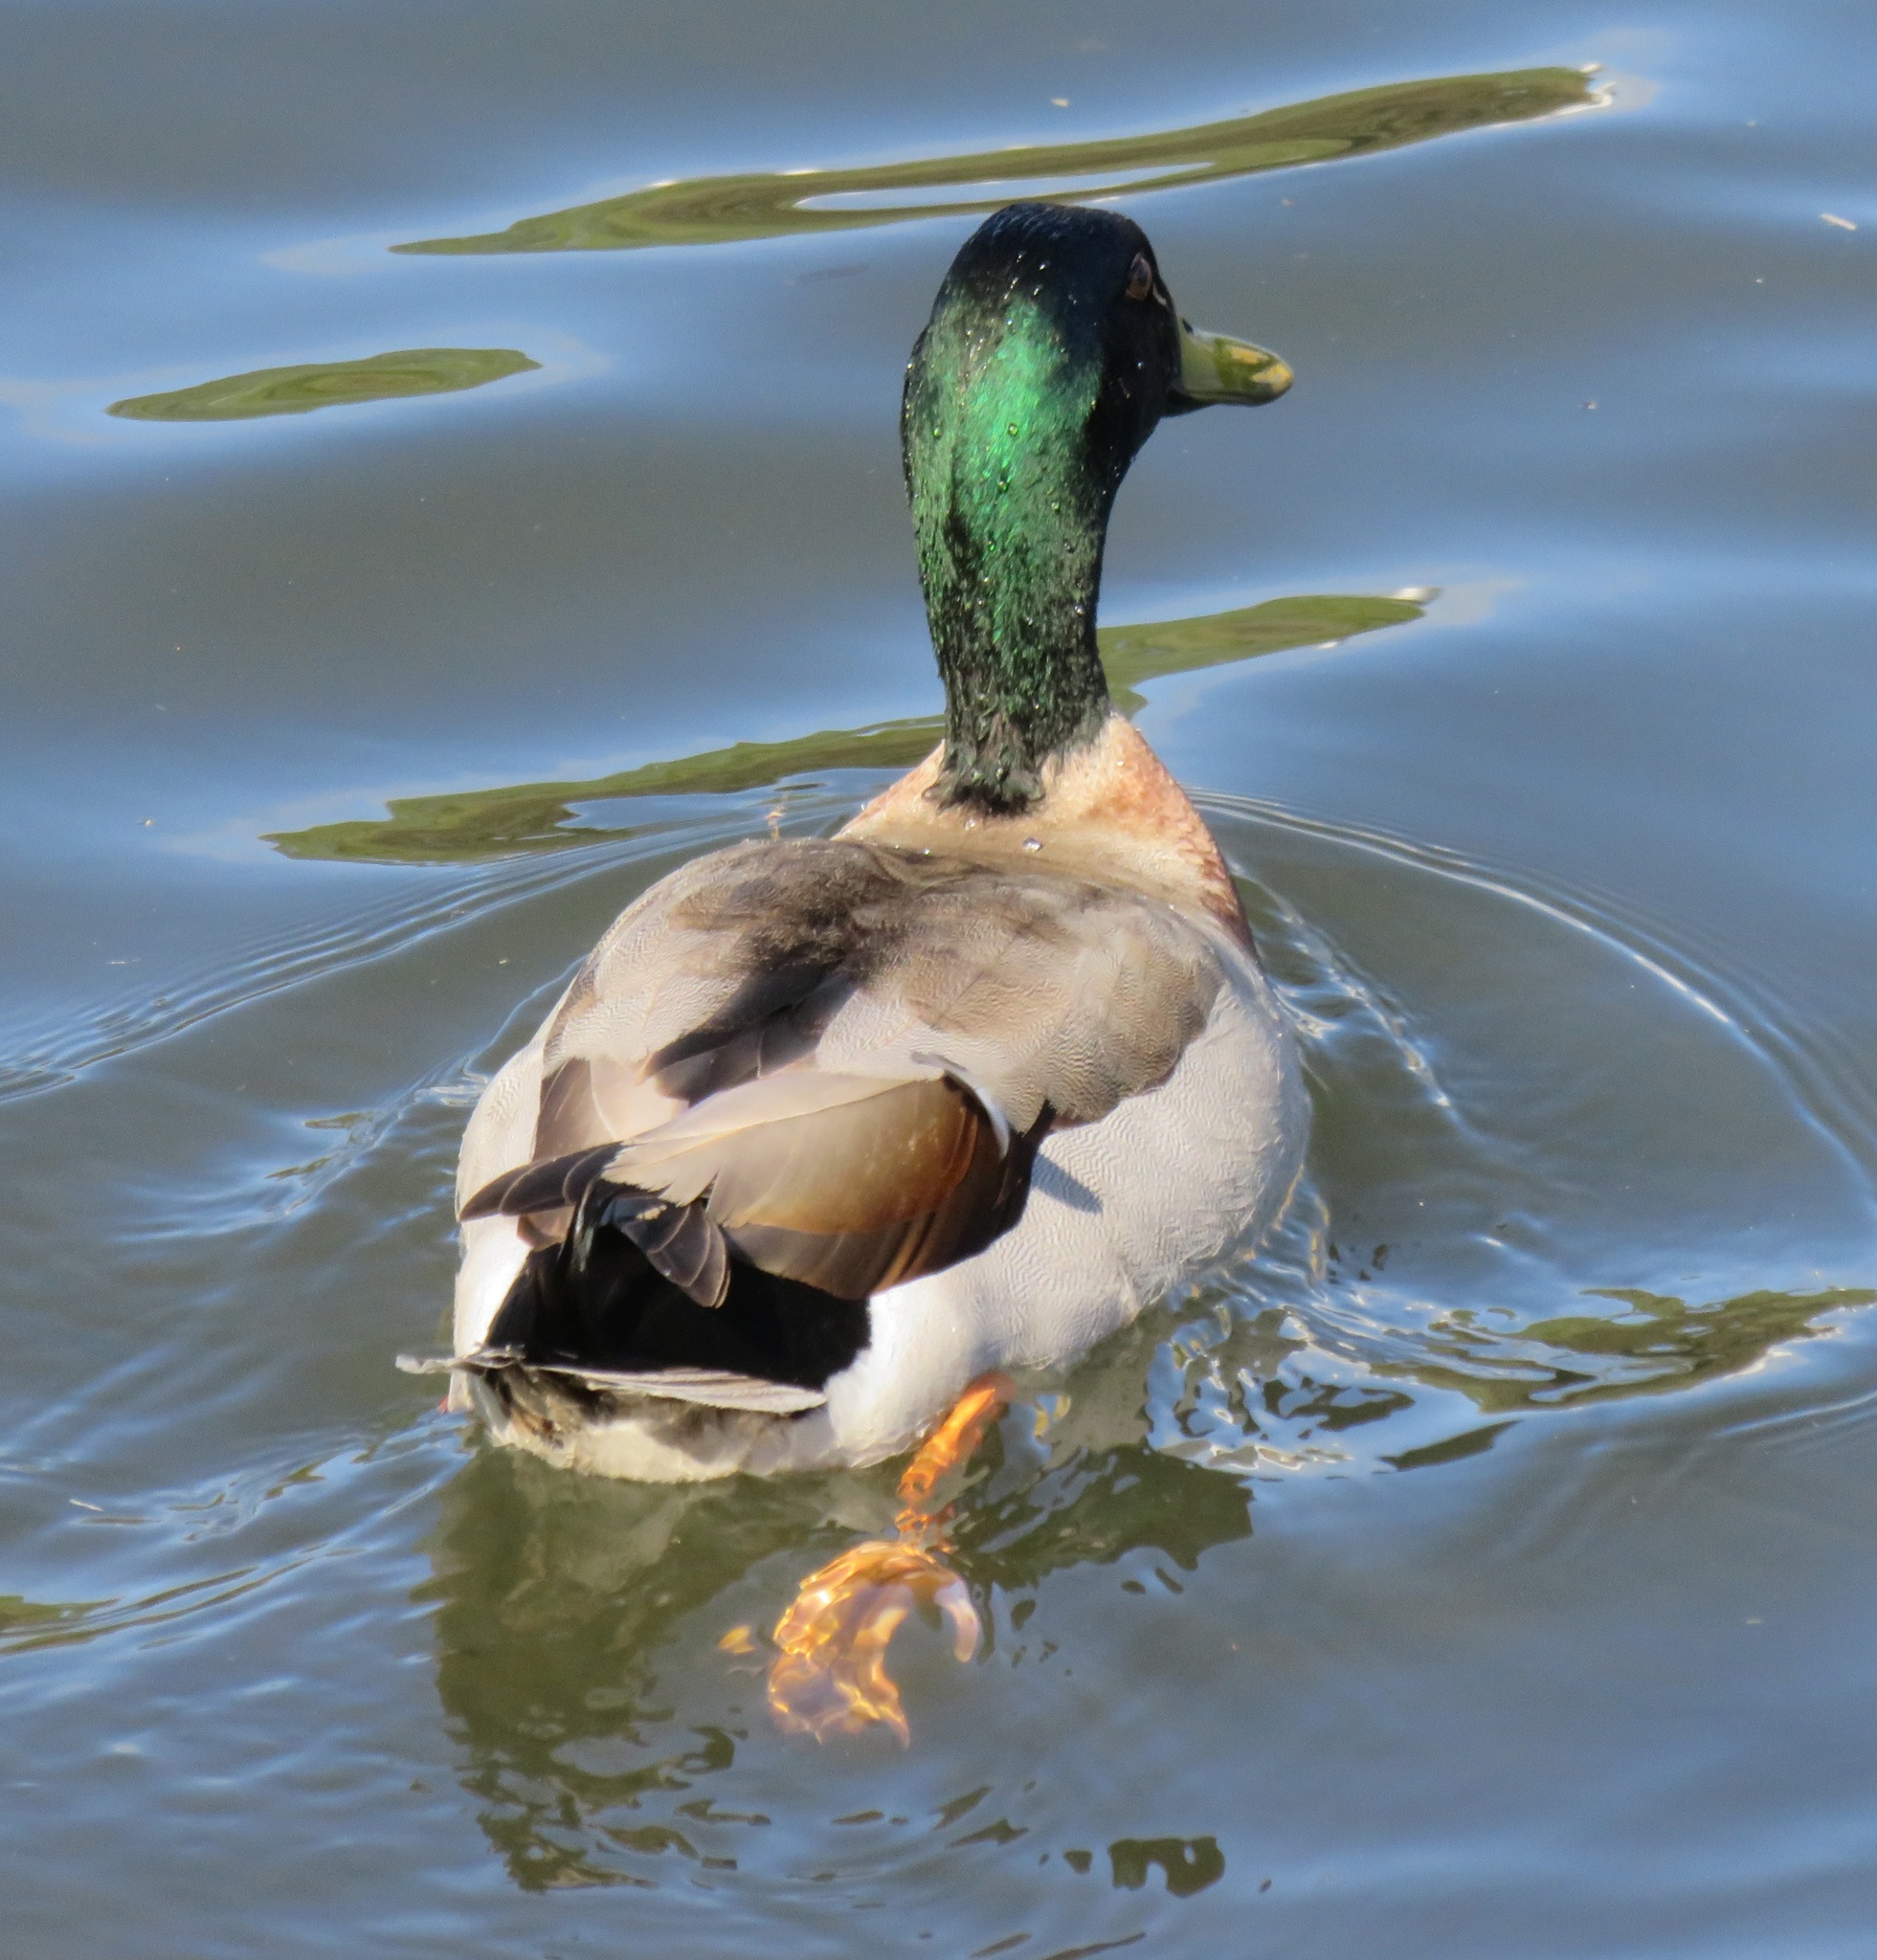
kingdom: Animalia
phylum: Chordata
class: Aves
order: Anseriformes
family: Anatidae
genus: Anas
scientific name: Anas platyrhynchos
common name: Mallard
